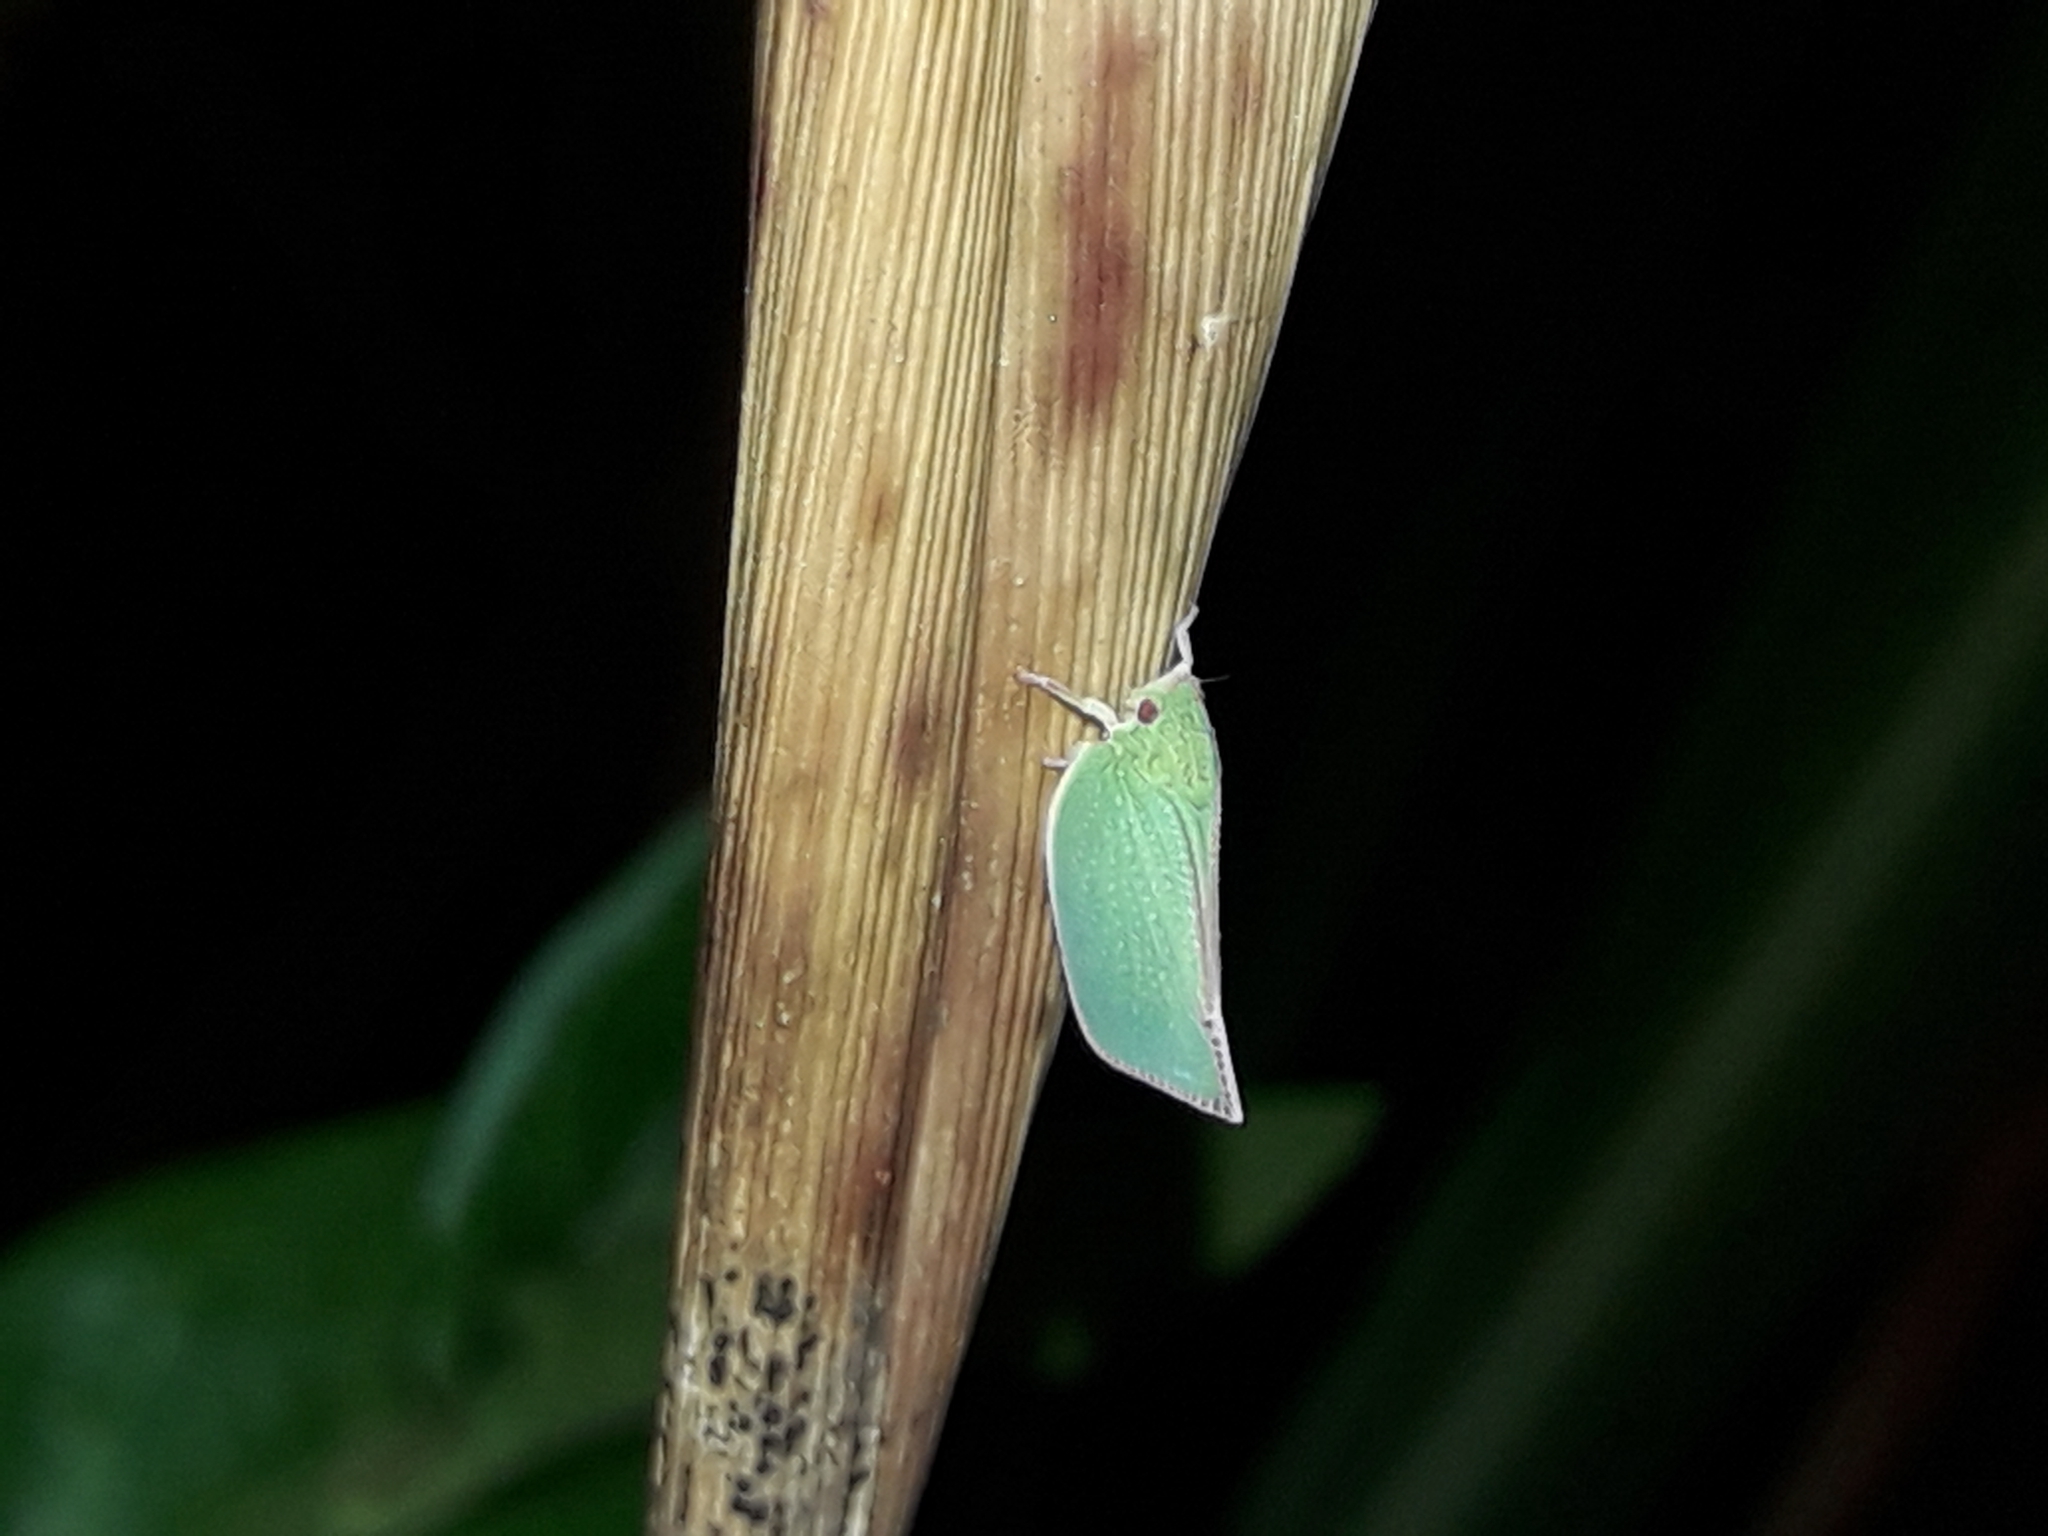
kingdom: Animalia
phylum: Arthropoda
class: Insecta
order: Hemiptera
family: Flatidae
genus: Siphanta
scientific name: Siphanta acuta
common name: Torpedo bug
